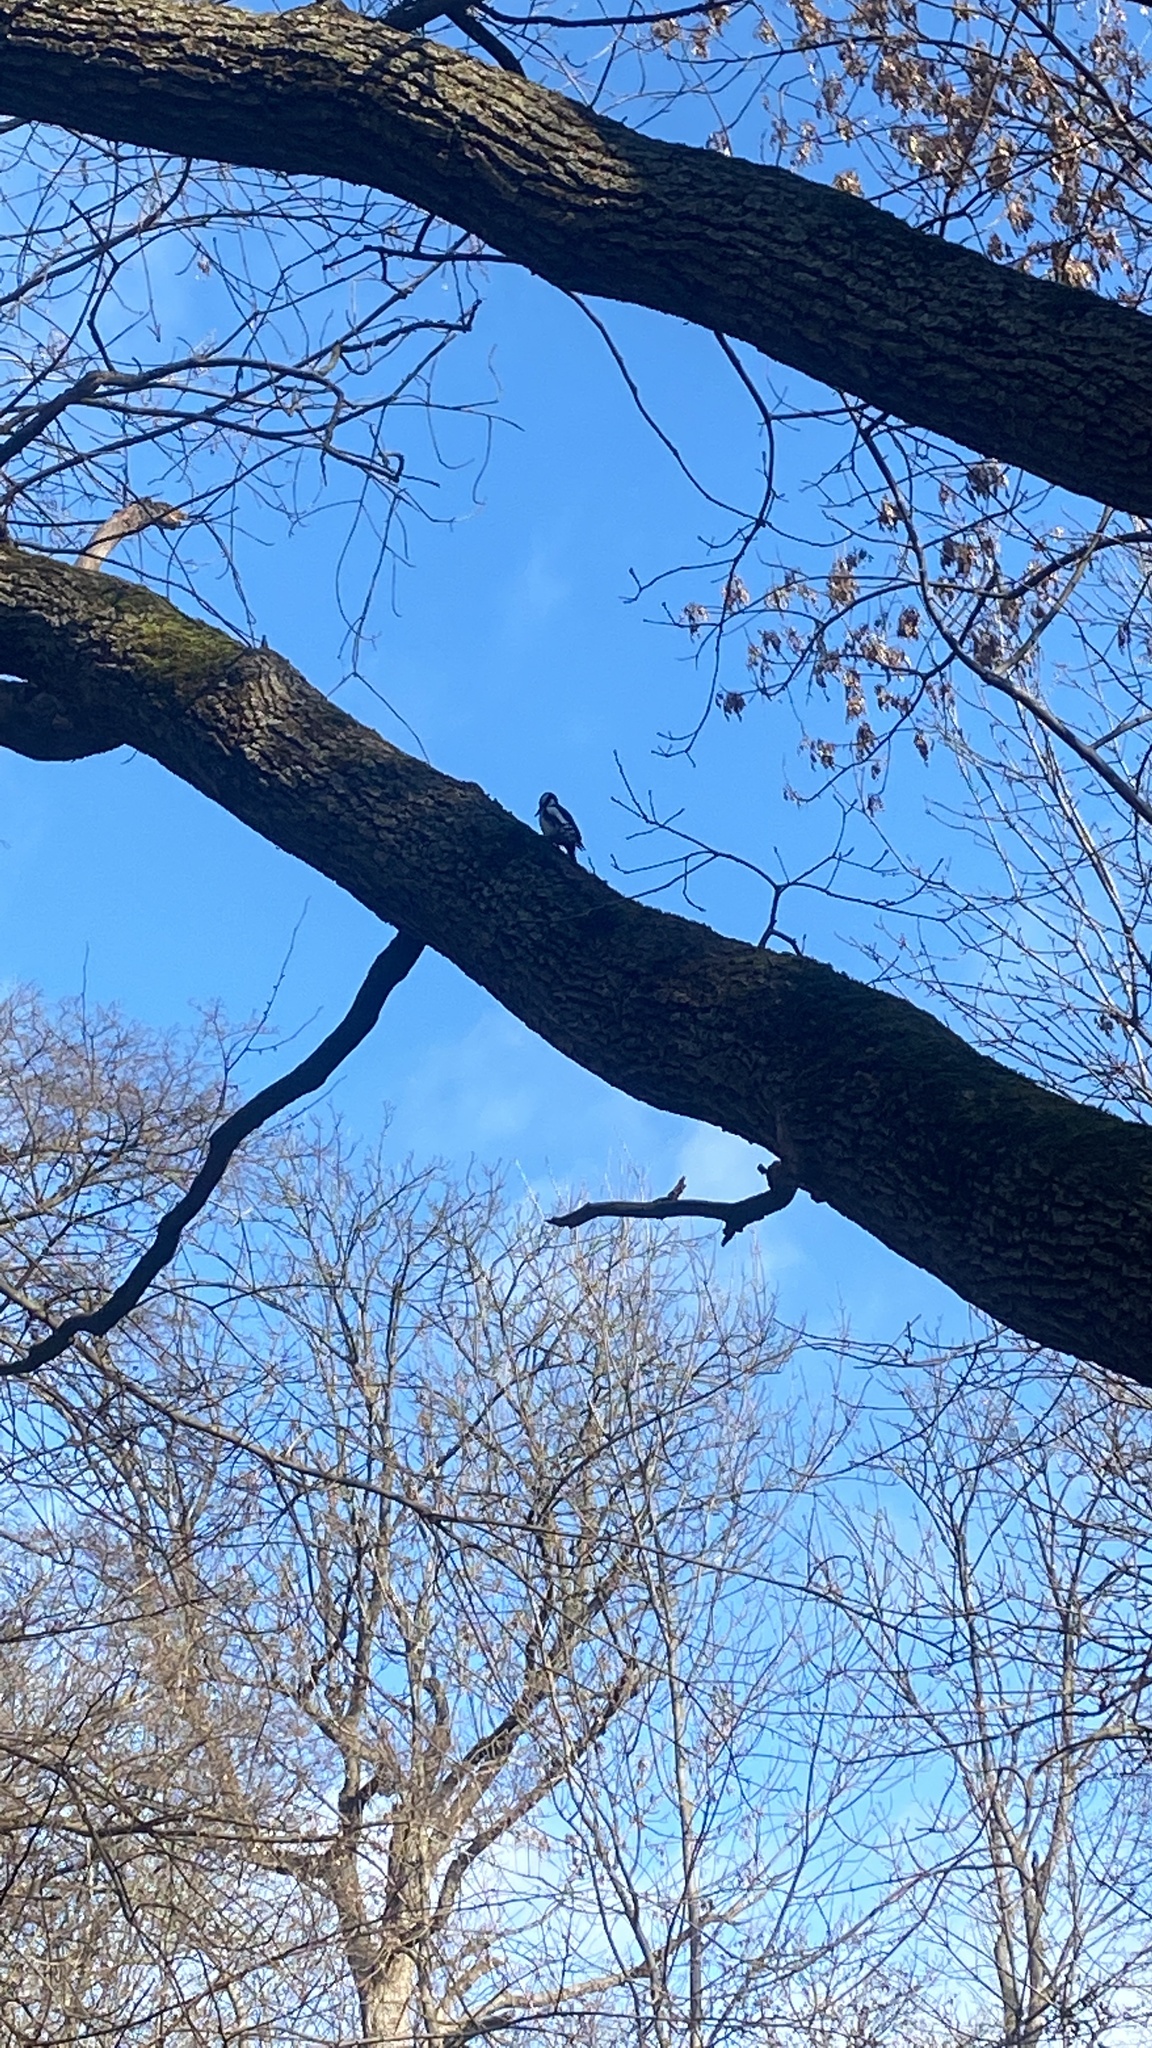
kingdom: Animalia
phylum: Chordata
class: Aves
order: Piciformes
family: Picidae
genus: Dendrocopos
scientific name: Dendrocopos major
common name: Great spotted woodpecker
